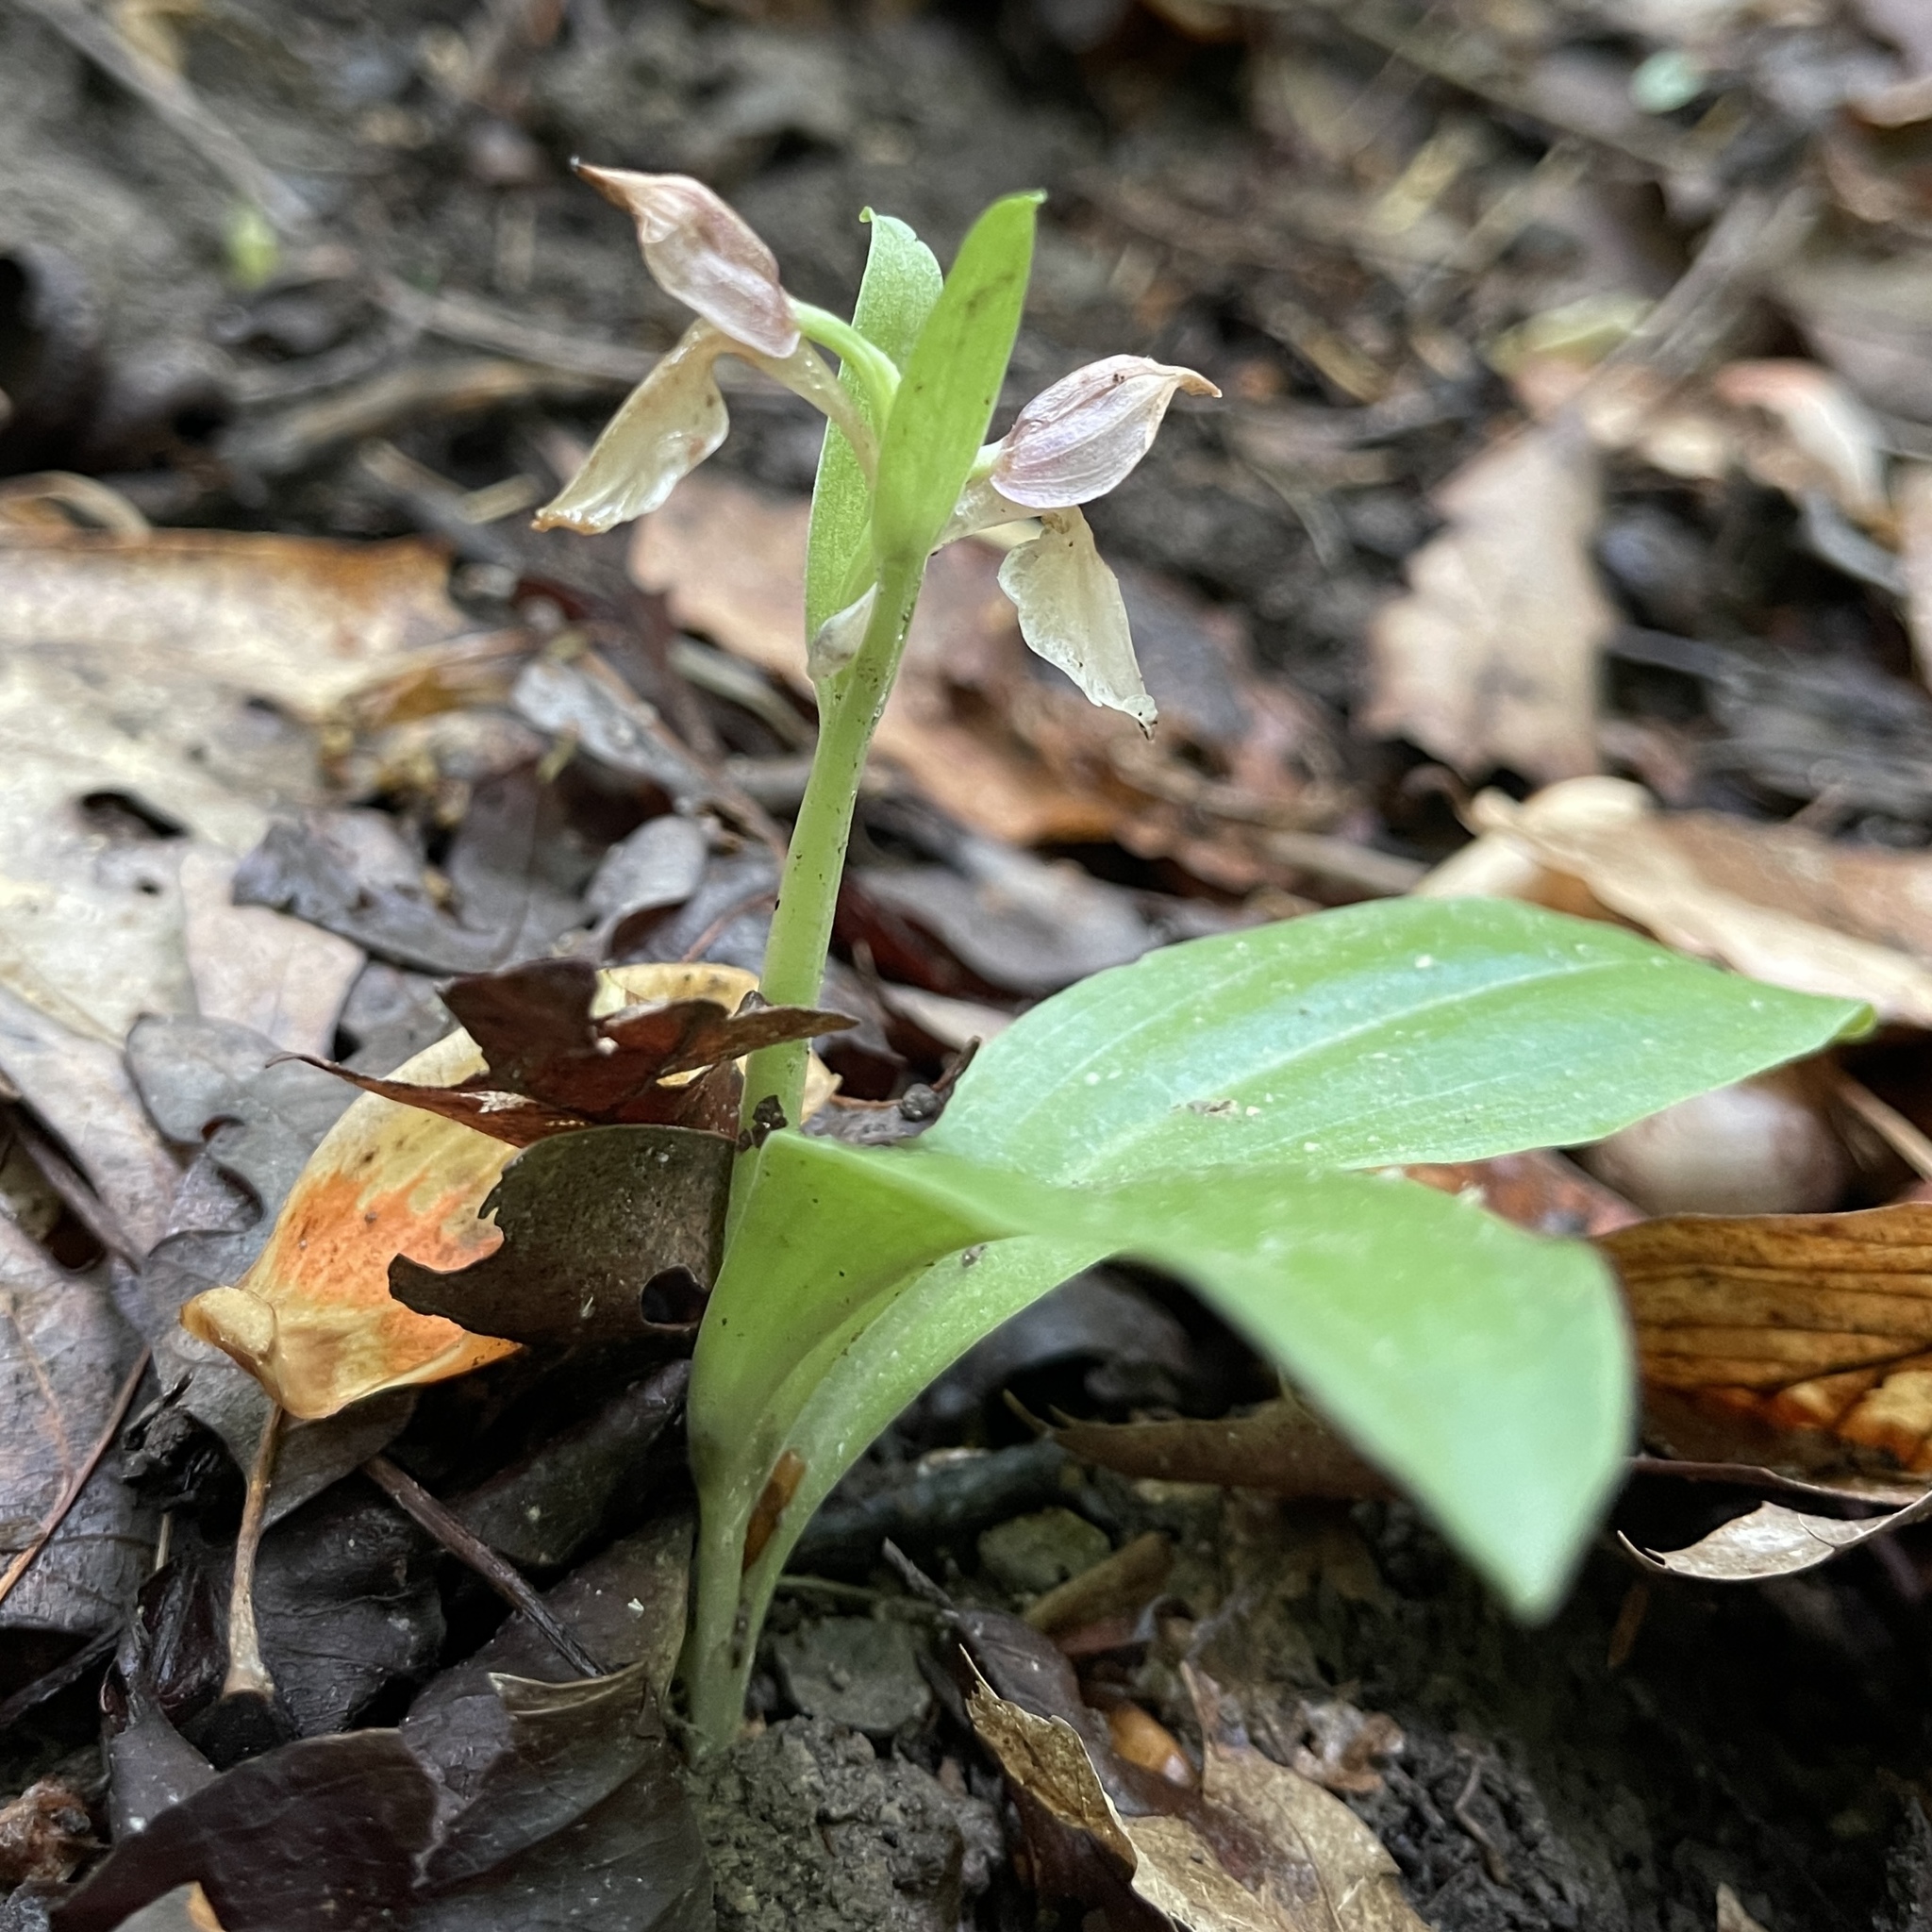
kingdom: Plantae
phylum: Tracheophyta
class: Liliopsida
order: Asparagales
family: Orchidaceae
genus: Galearis
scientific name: Galearis spectabilis
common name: Purple-hooded orchis
